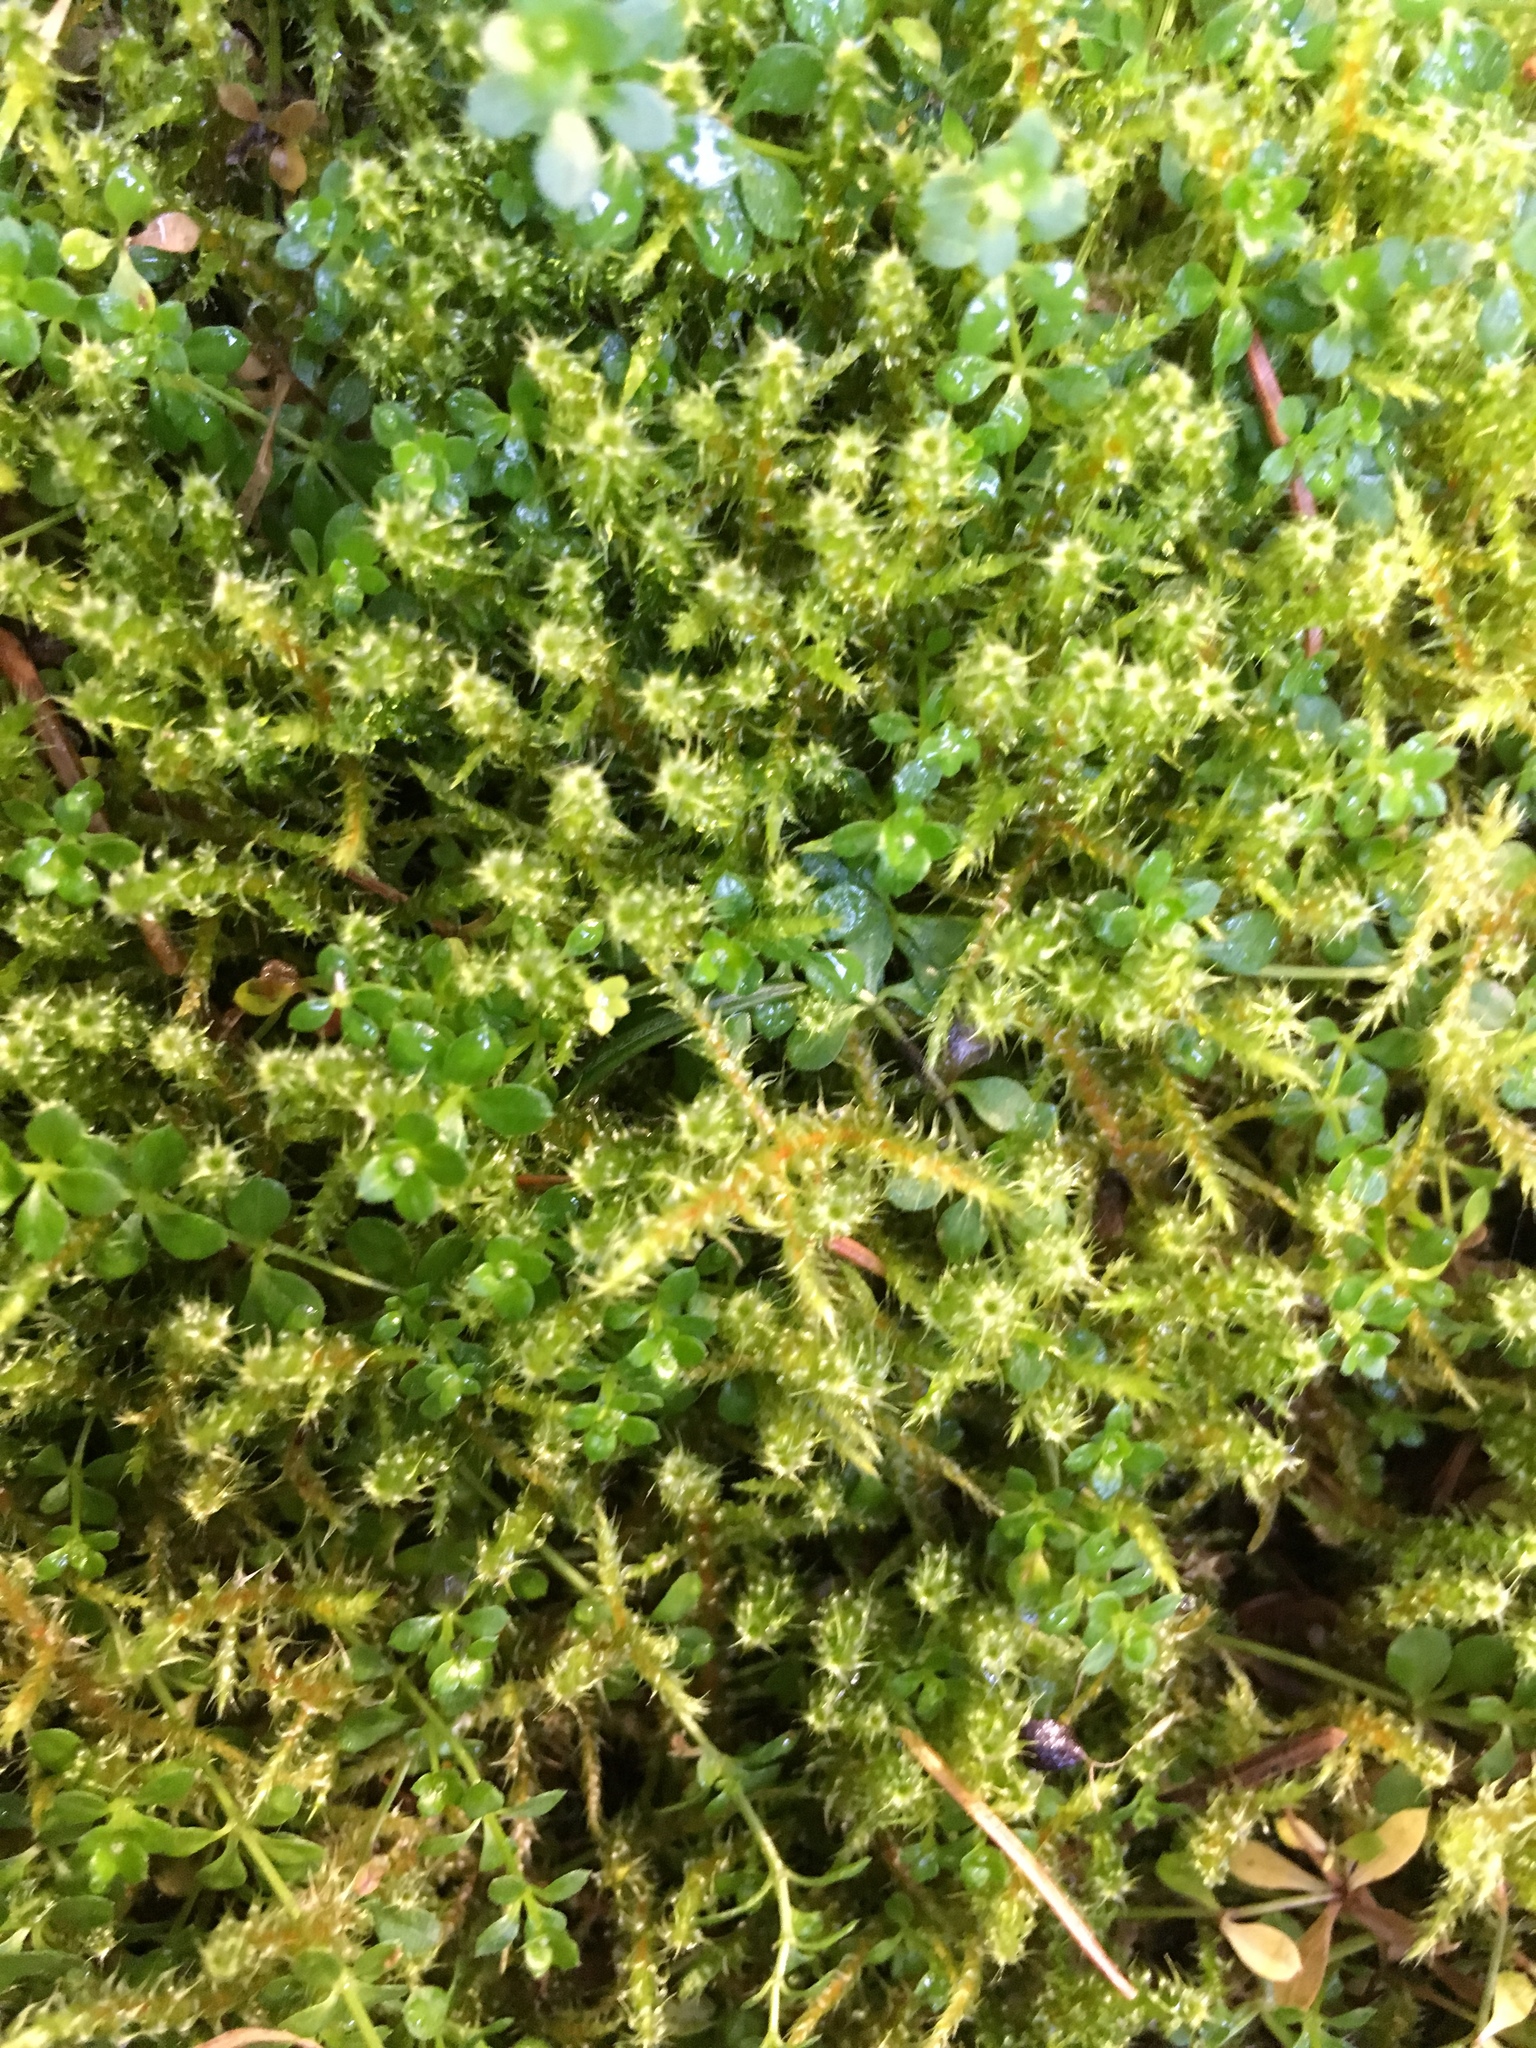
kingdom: Plantae
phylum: Bryophyta
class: Bryopsida
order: Hypnales
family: Hylocomiaceae
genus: Rhytidiadelphus
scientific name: Rhytidiadelphus squarrosus
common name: Springy turf-moss
